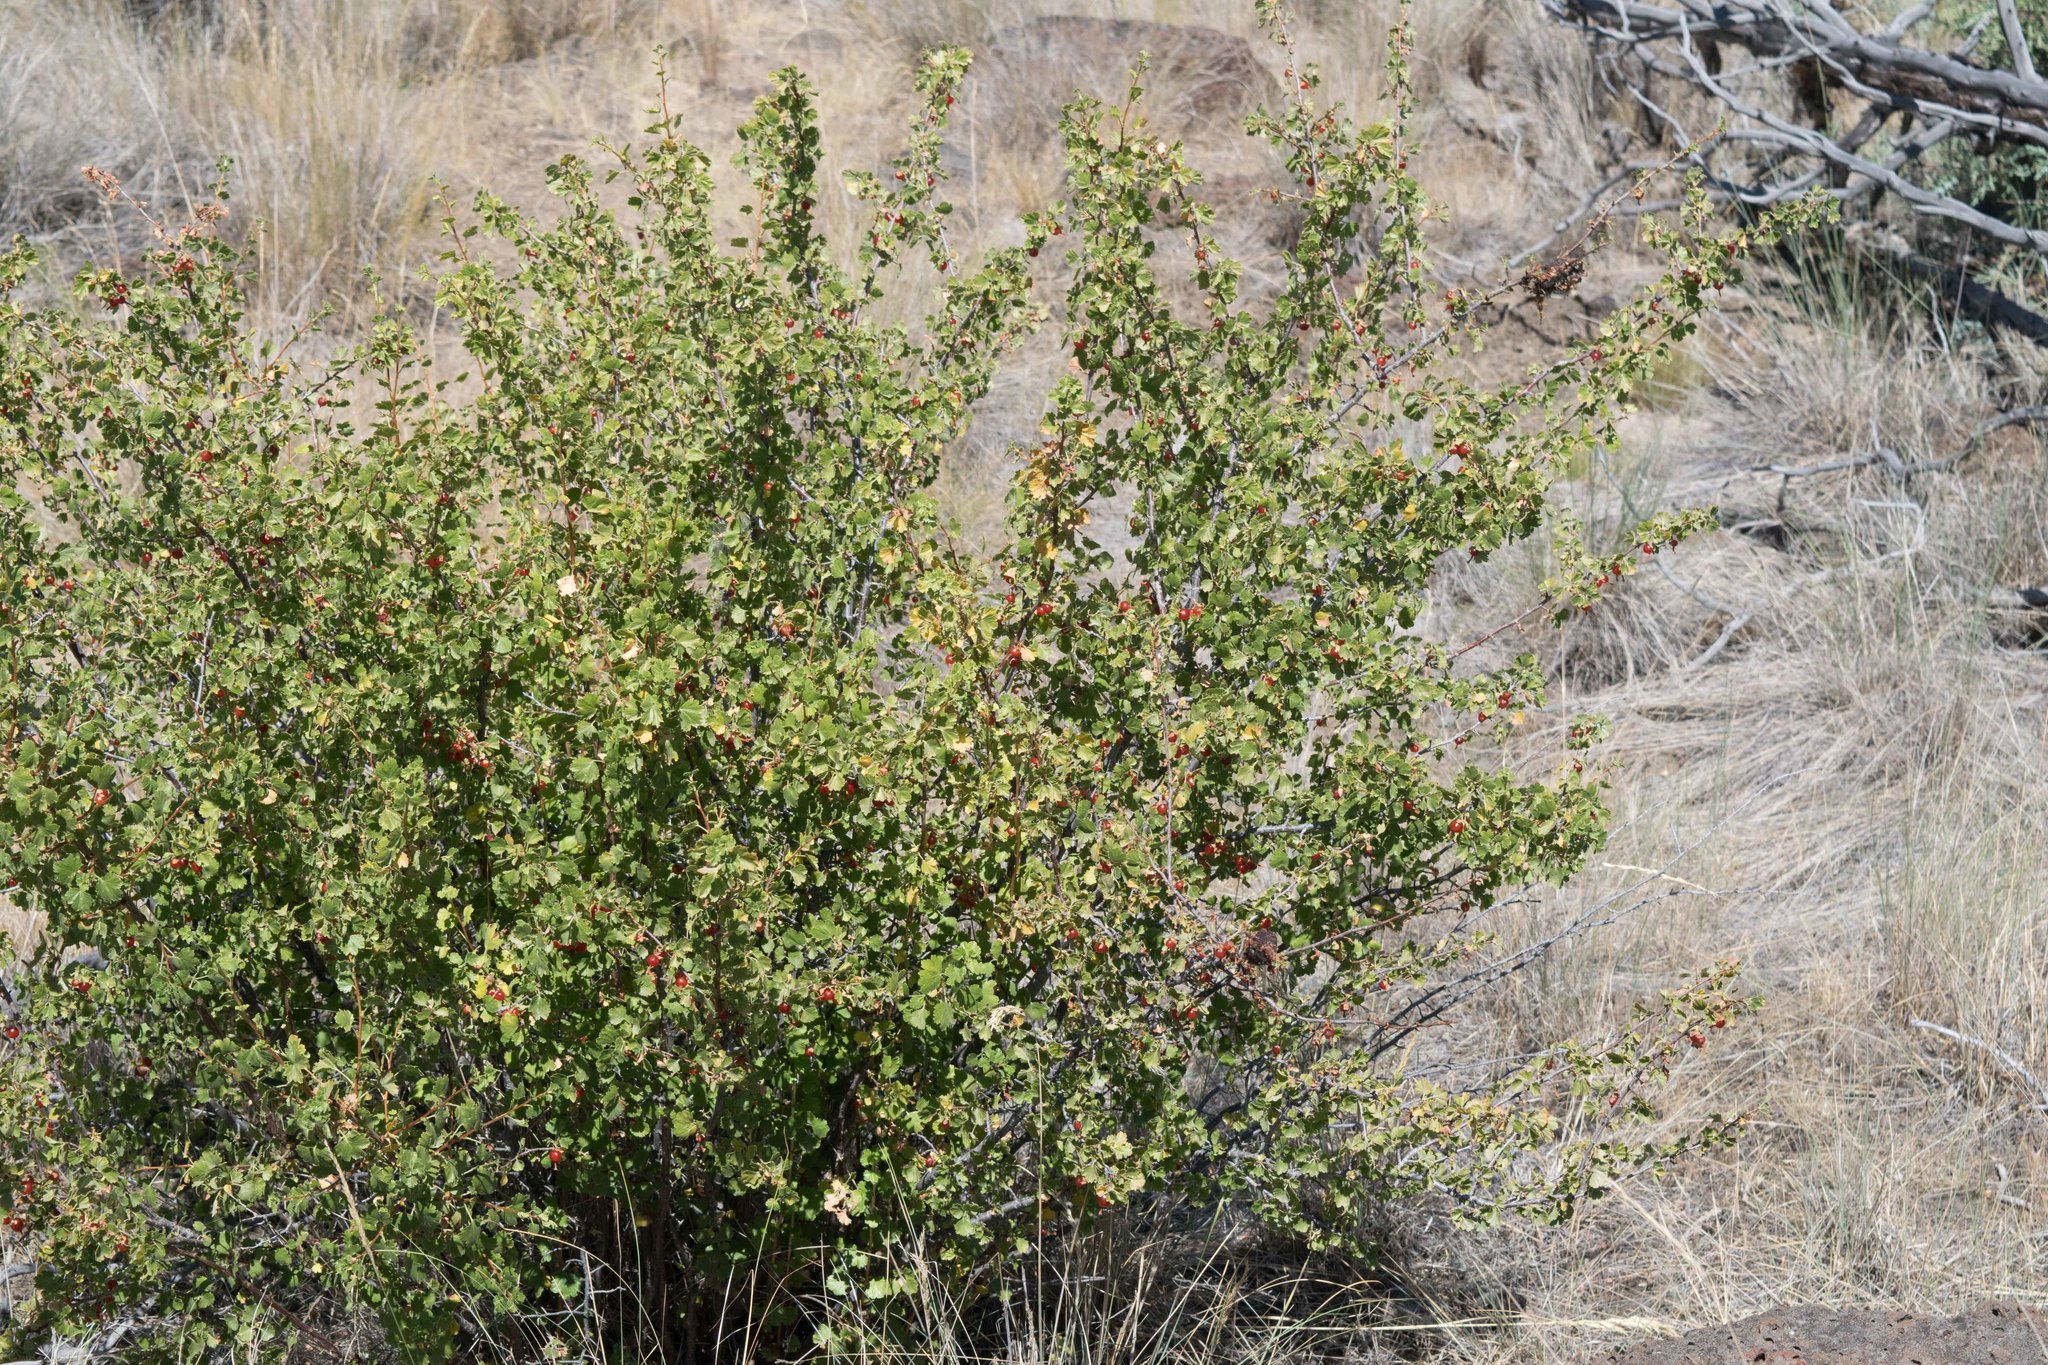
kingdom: Plantae
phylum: Tracheophyta
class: Magnoliopsida
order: Saxifragales
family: Grossulariaceae
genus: Ribes
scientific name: Ribes cereum
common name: Wax currant
